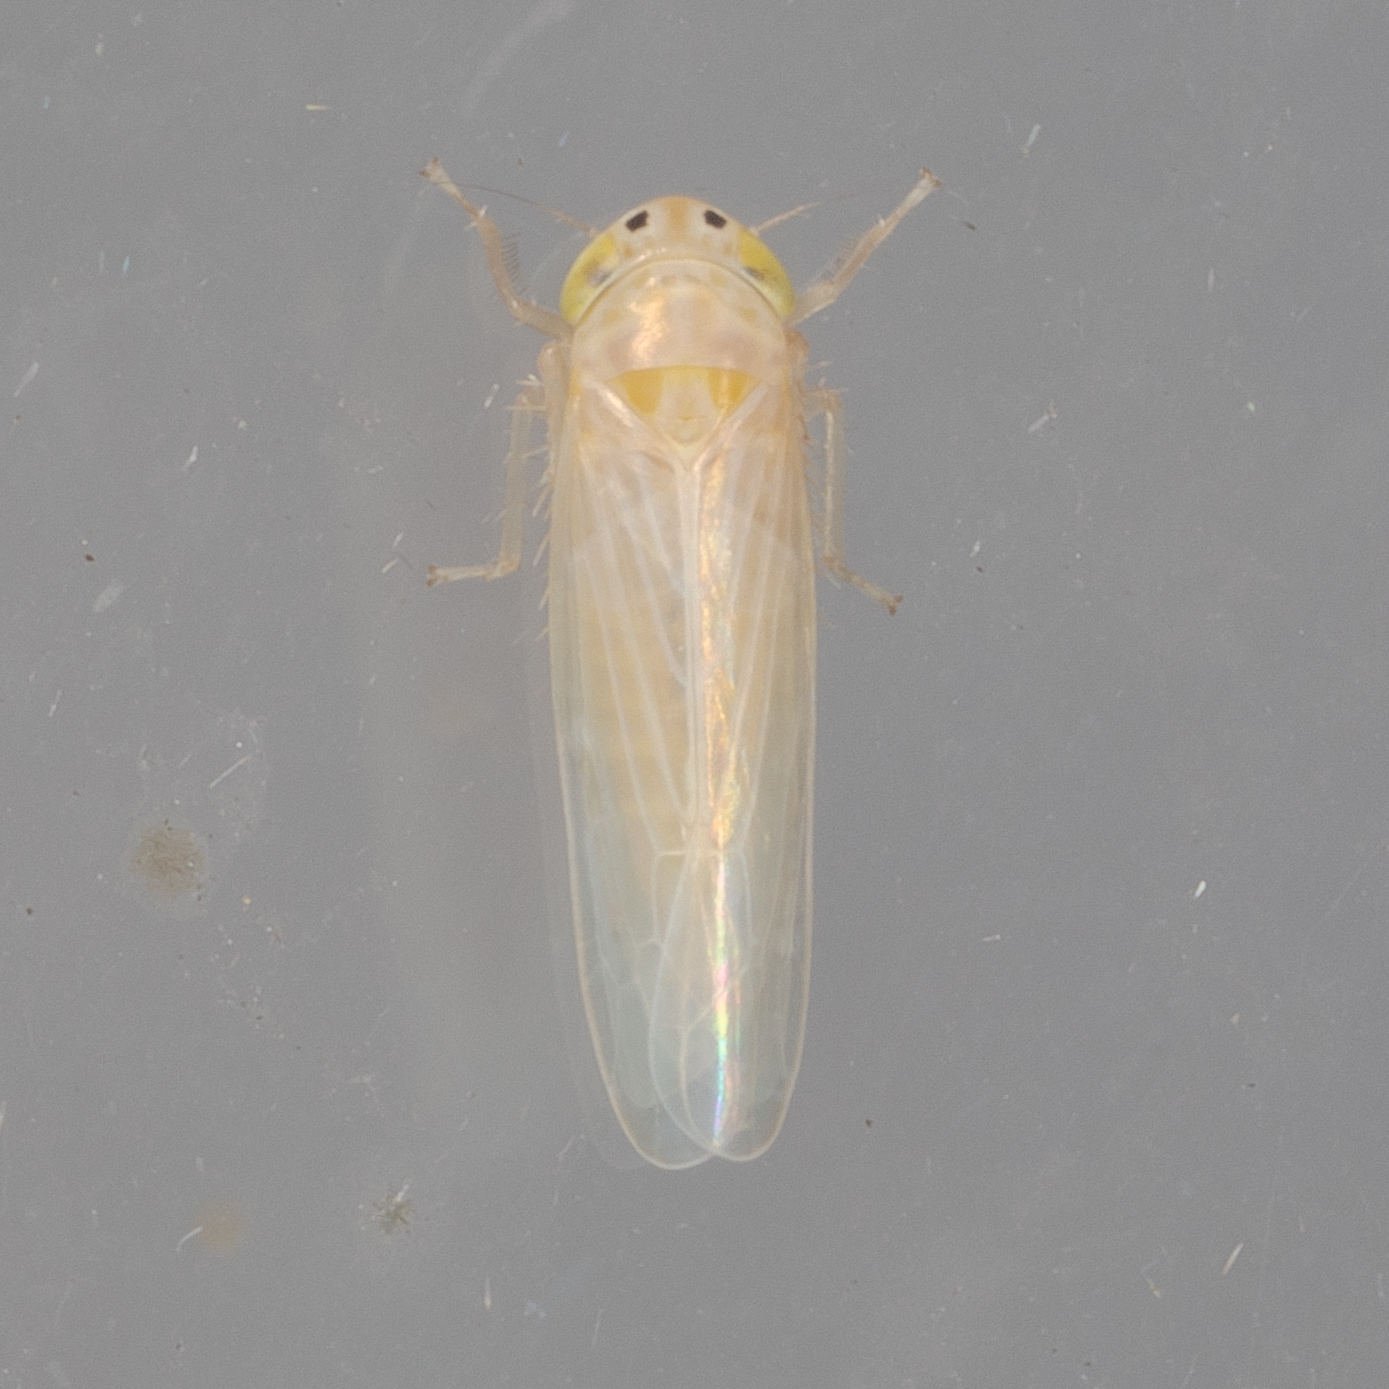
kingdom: Animalia
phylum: Arthropoda
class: Insecta
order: Hemiptera
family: Cicadellidae
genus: Dalbulus
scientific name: Dalbulus maidis
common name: Corn leafhopper
